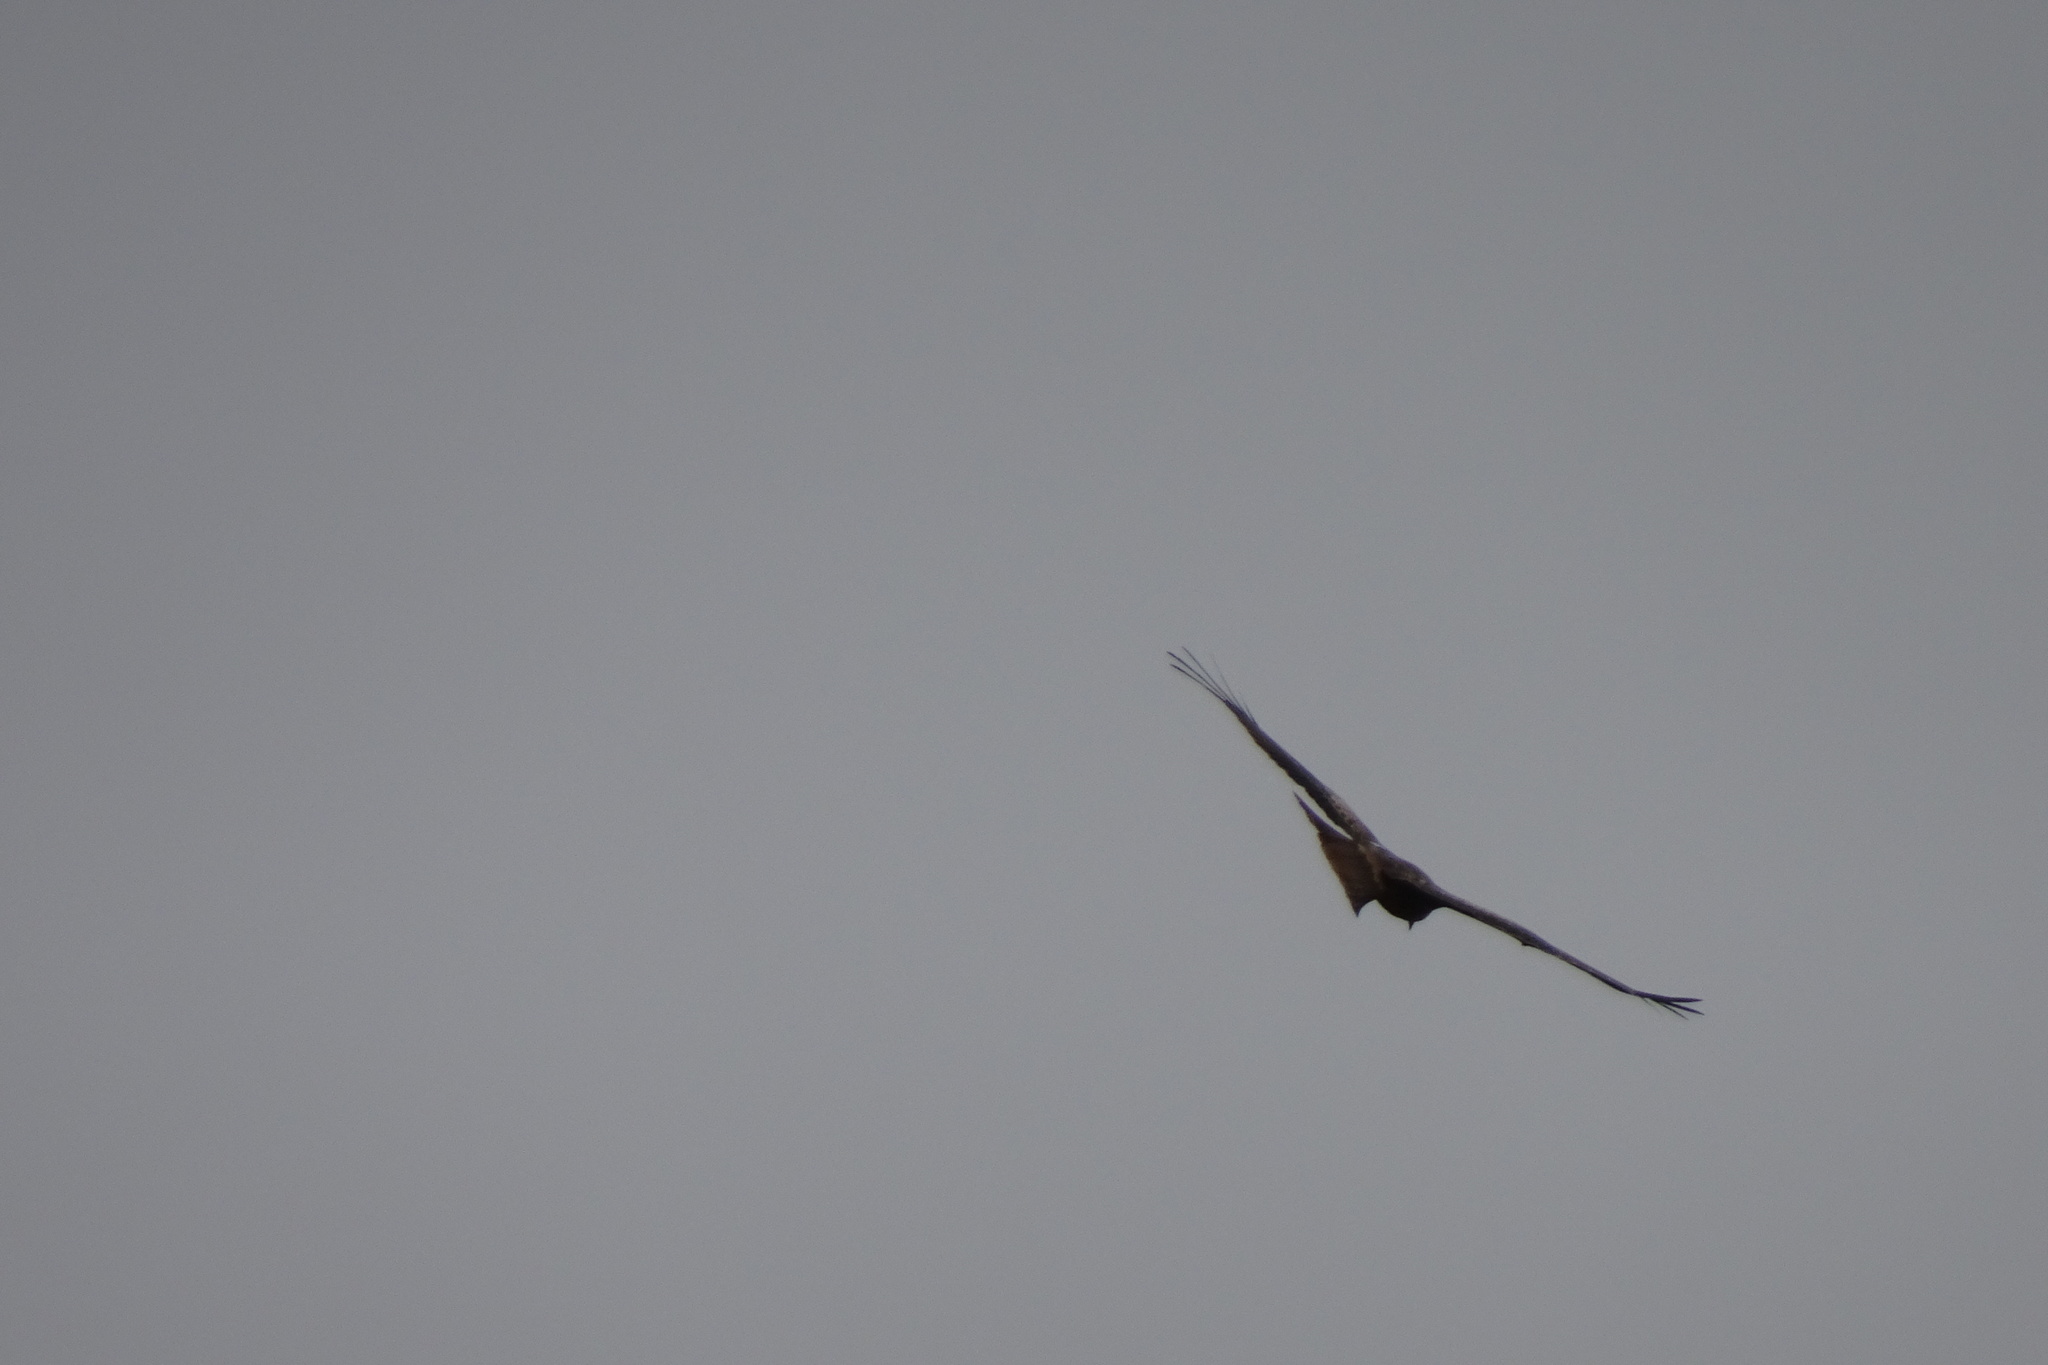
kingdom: Animalia
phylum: Chordata
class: Aves
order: Accipitriformes
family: Accipitridae
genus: Milvus
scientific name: Milvus milvus
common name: Red kite
